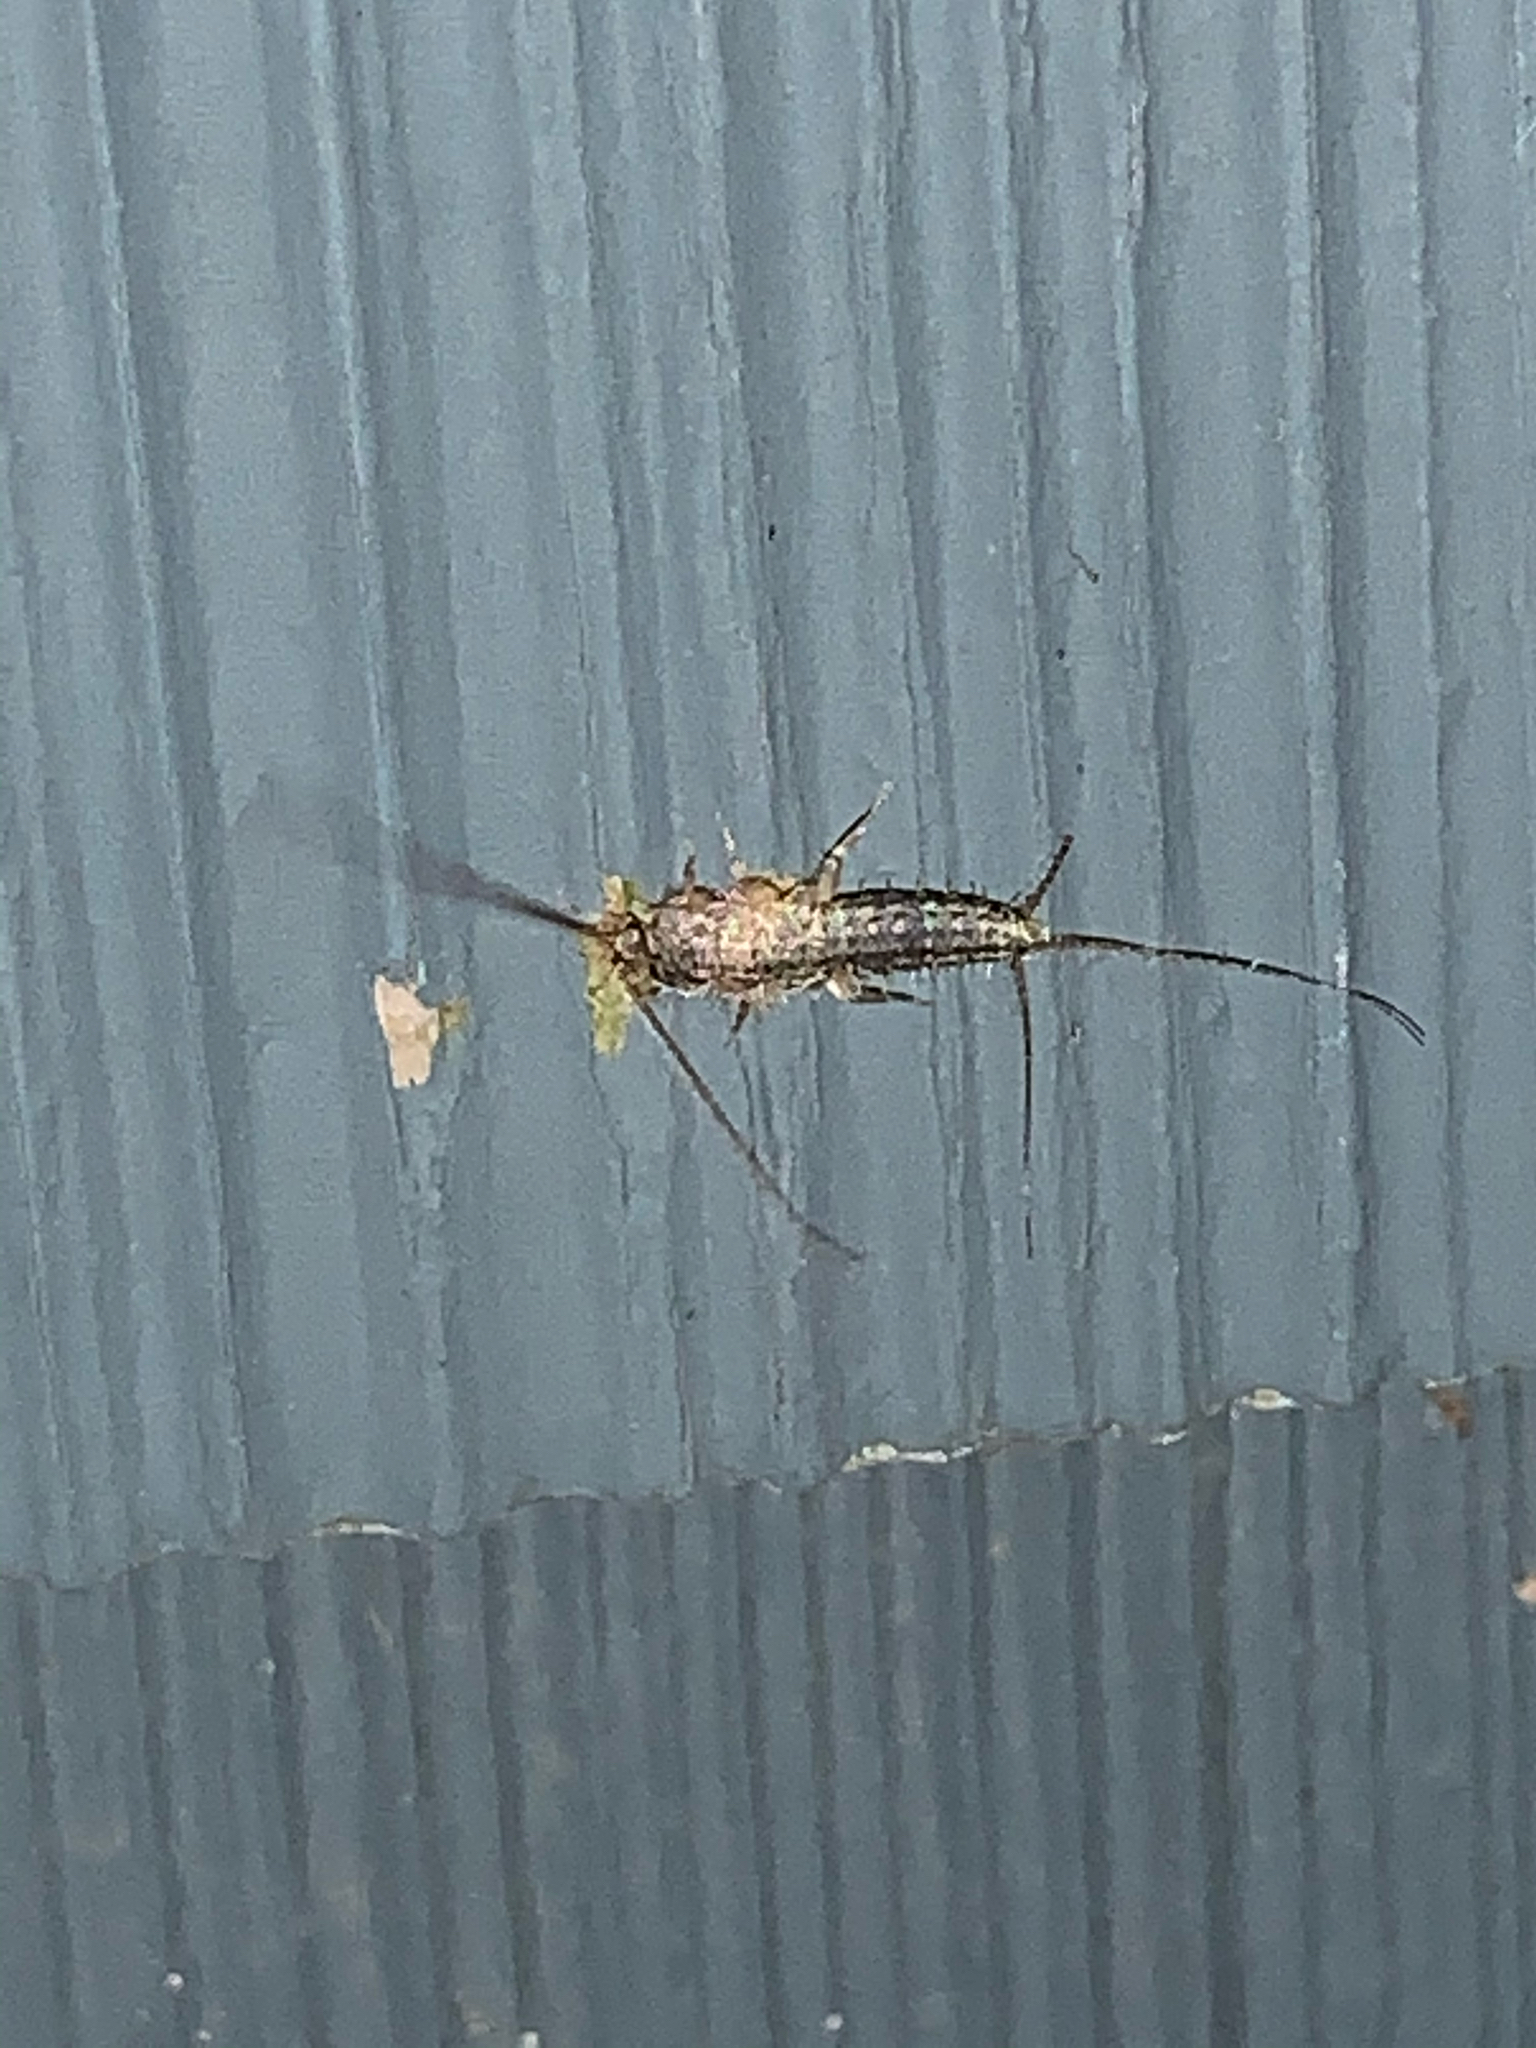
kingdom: Animalia
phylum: Arthropoda
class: Insecta
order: Zygentoma
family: Lepismatidae
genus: Ctenolepisma
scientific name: Ctenolepisma lineata
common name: Four-lined silverfish
